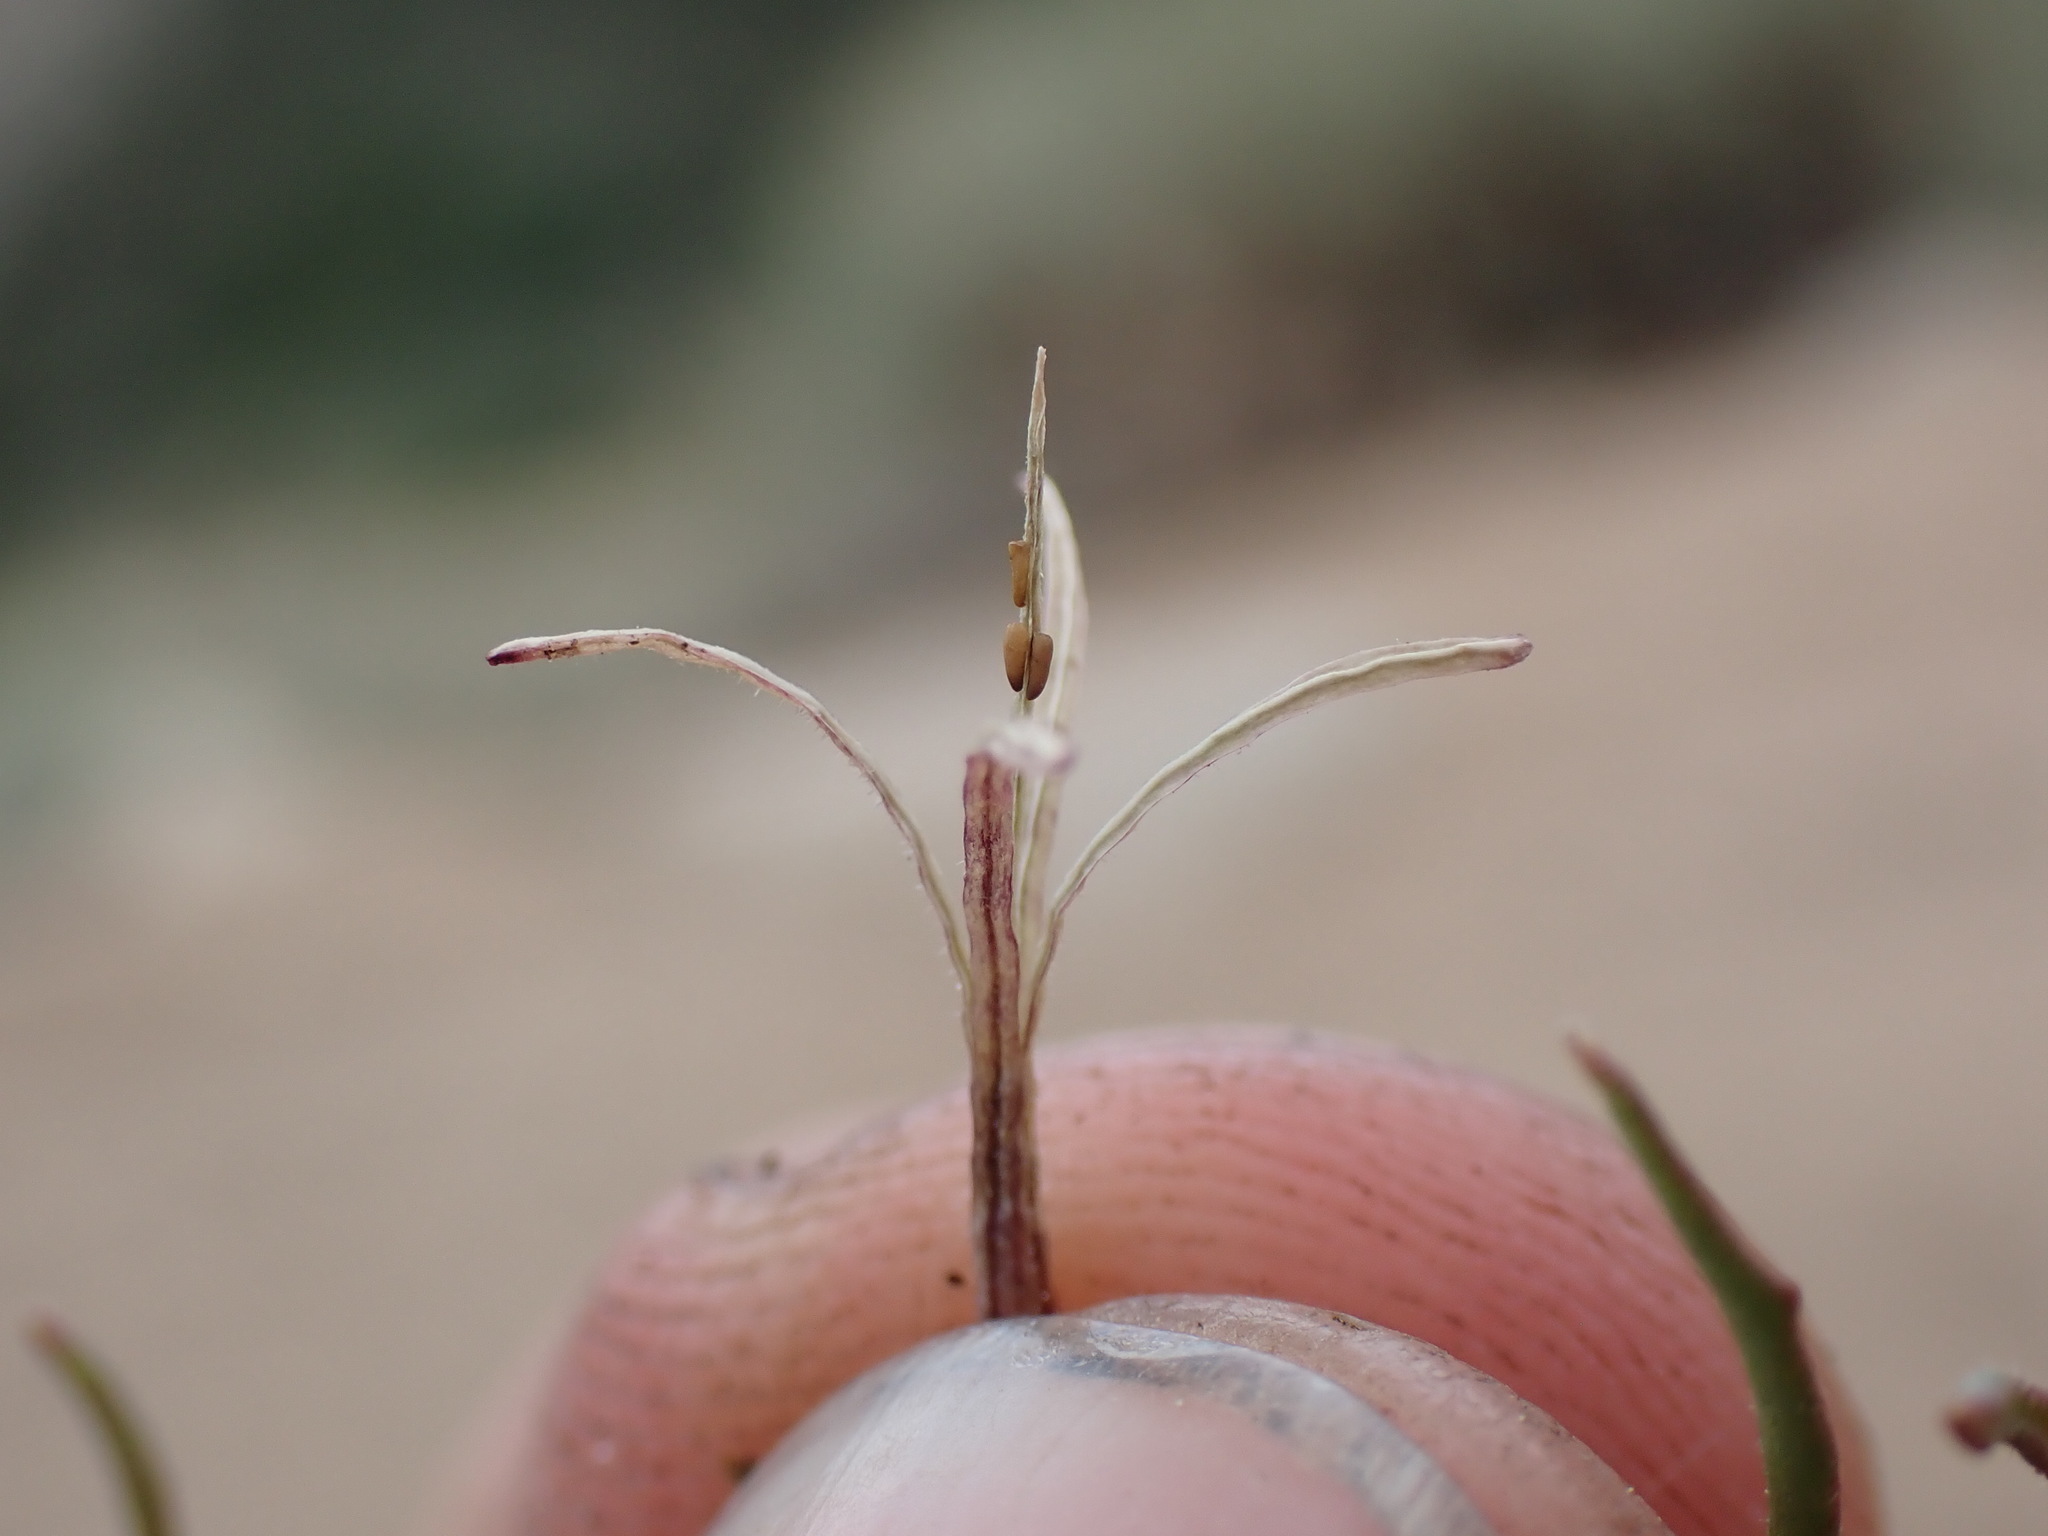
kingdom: Plantae
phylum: Tracheophyta
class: Magnoliopsida
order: Myrtales
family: Onagraceae
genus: Camissonia
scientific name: Camissonia pusilla
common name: Obscure camissonia
